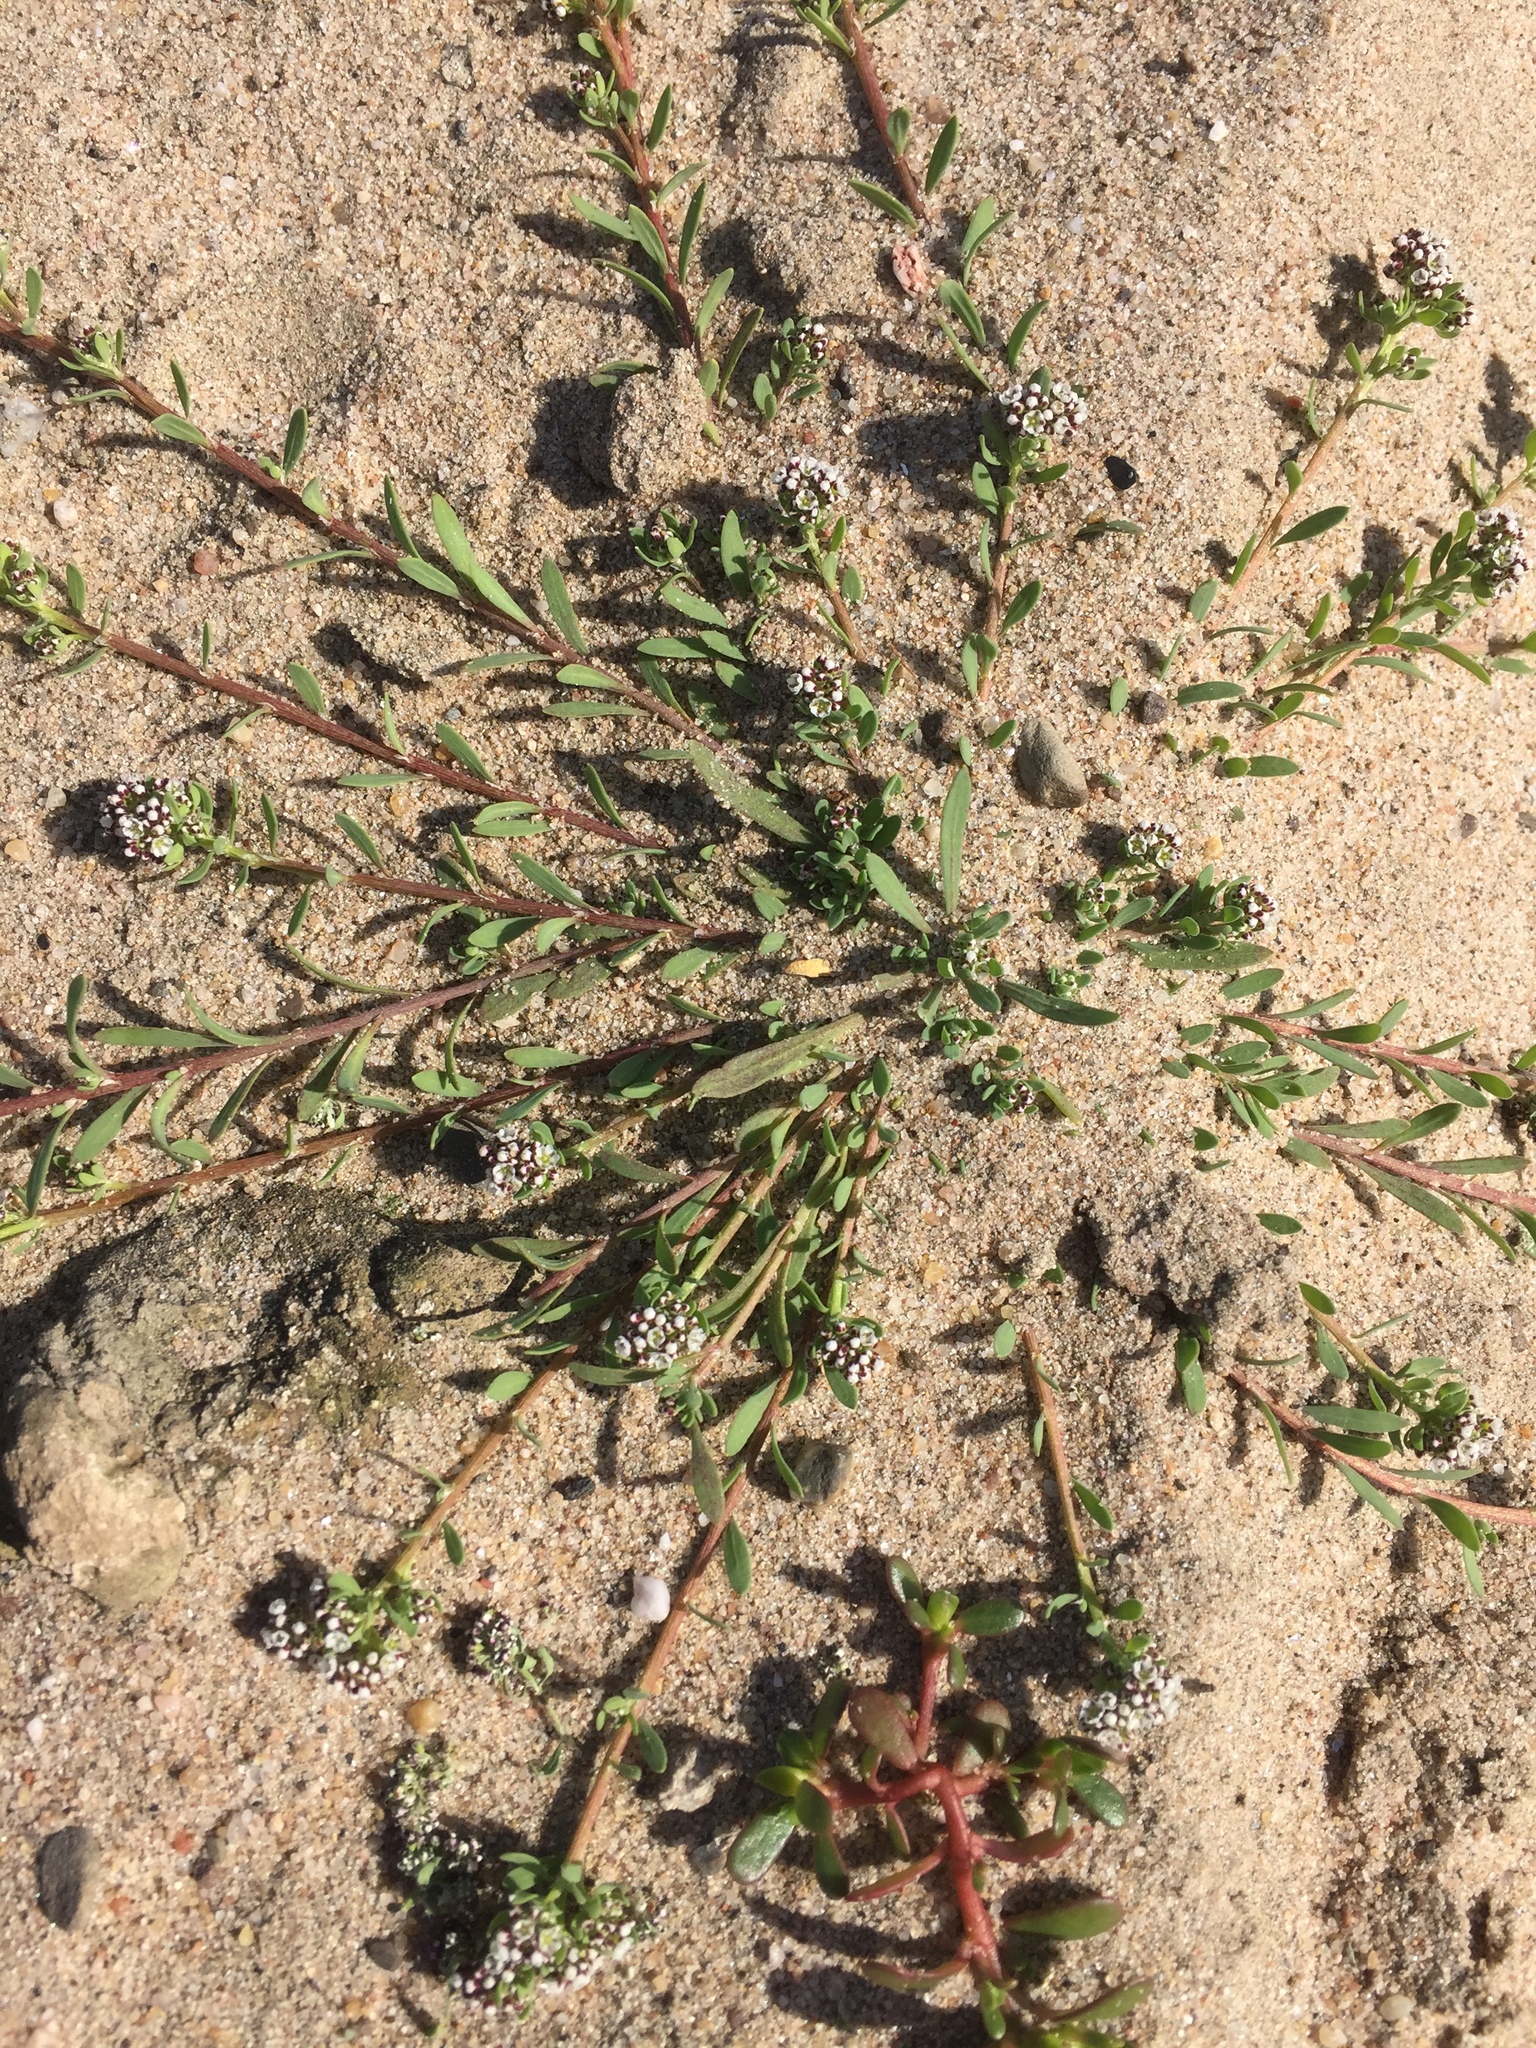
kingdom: Plantae
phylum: Tracheophyta
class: Magnoliopsida
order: Caryophyllales
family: Caryophyllaceae
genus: Corrigiola
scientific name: Corrigiola litoralis
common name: Strapwort
